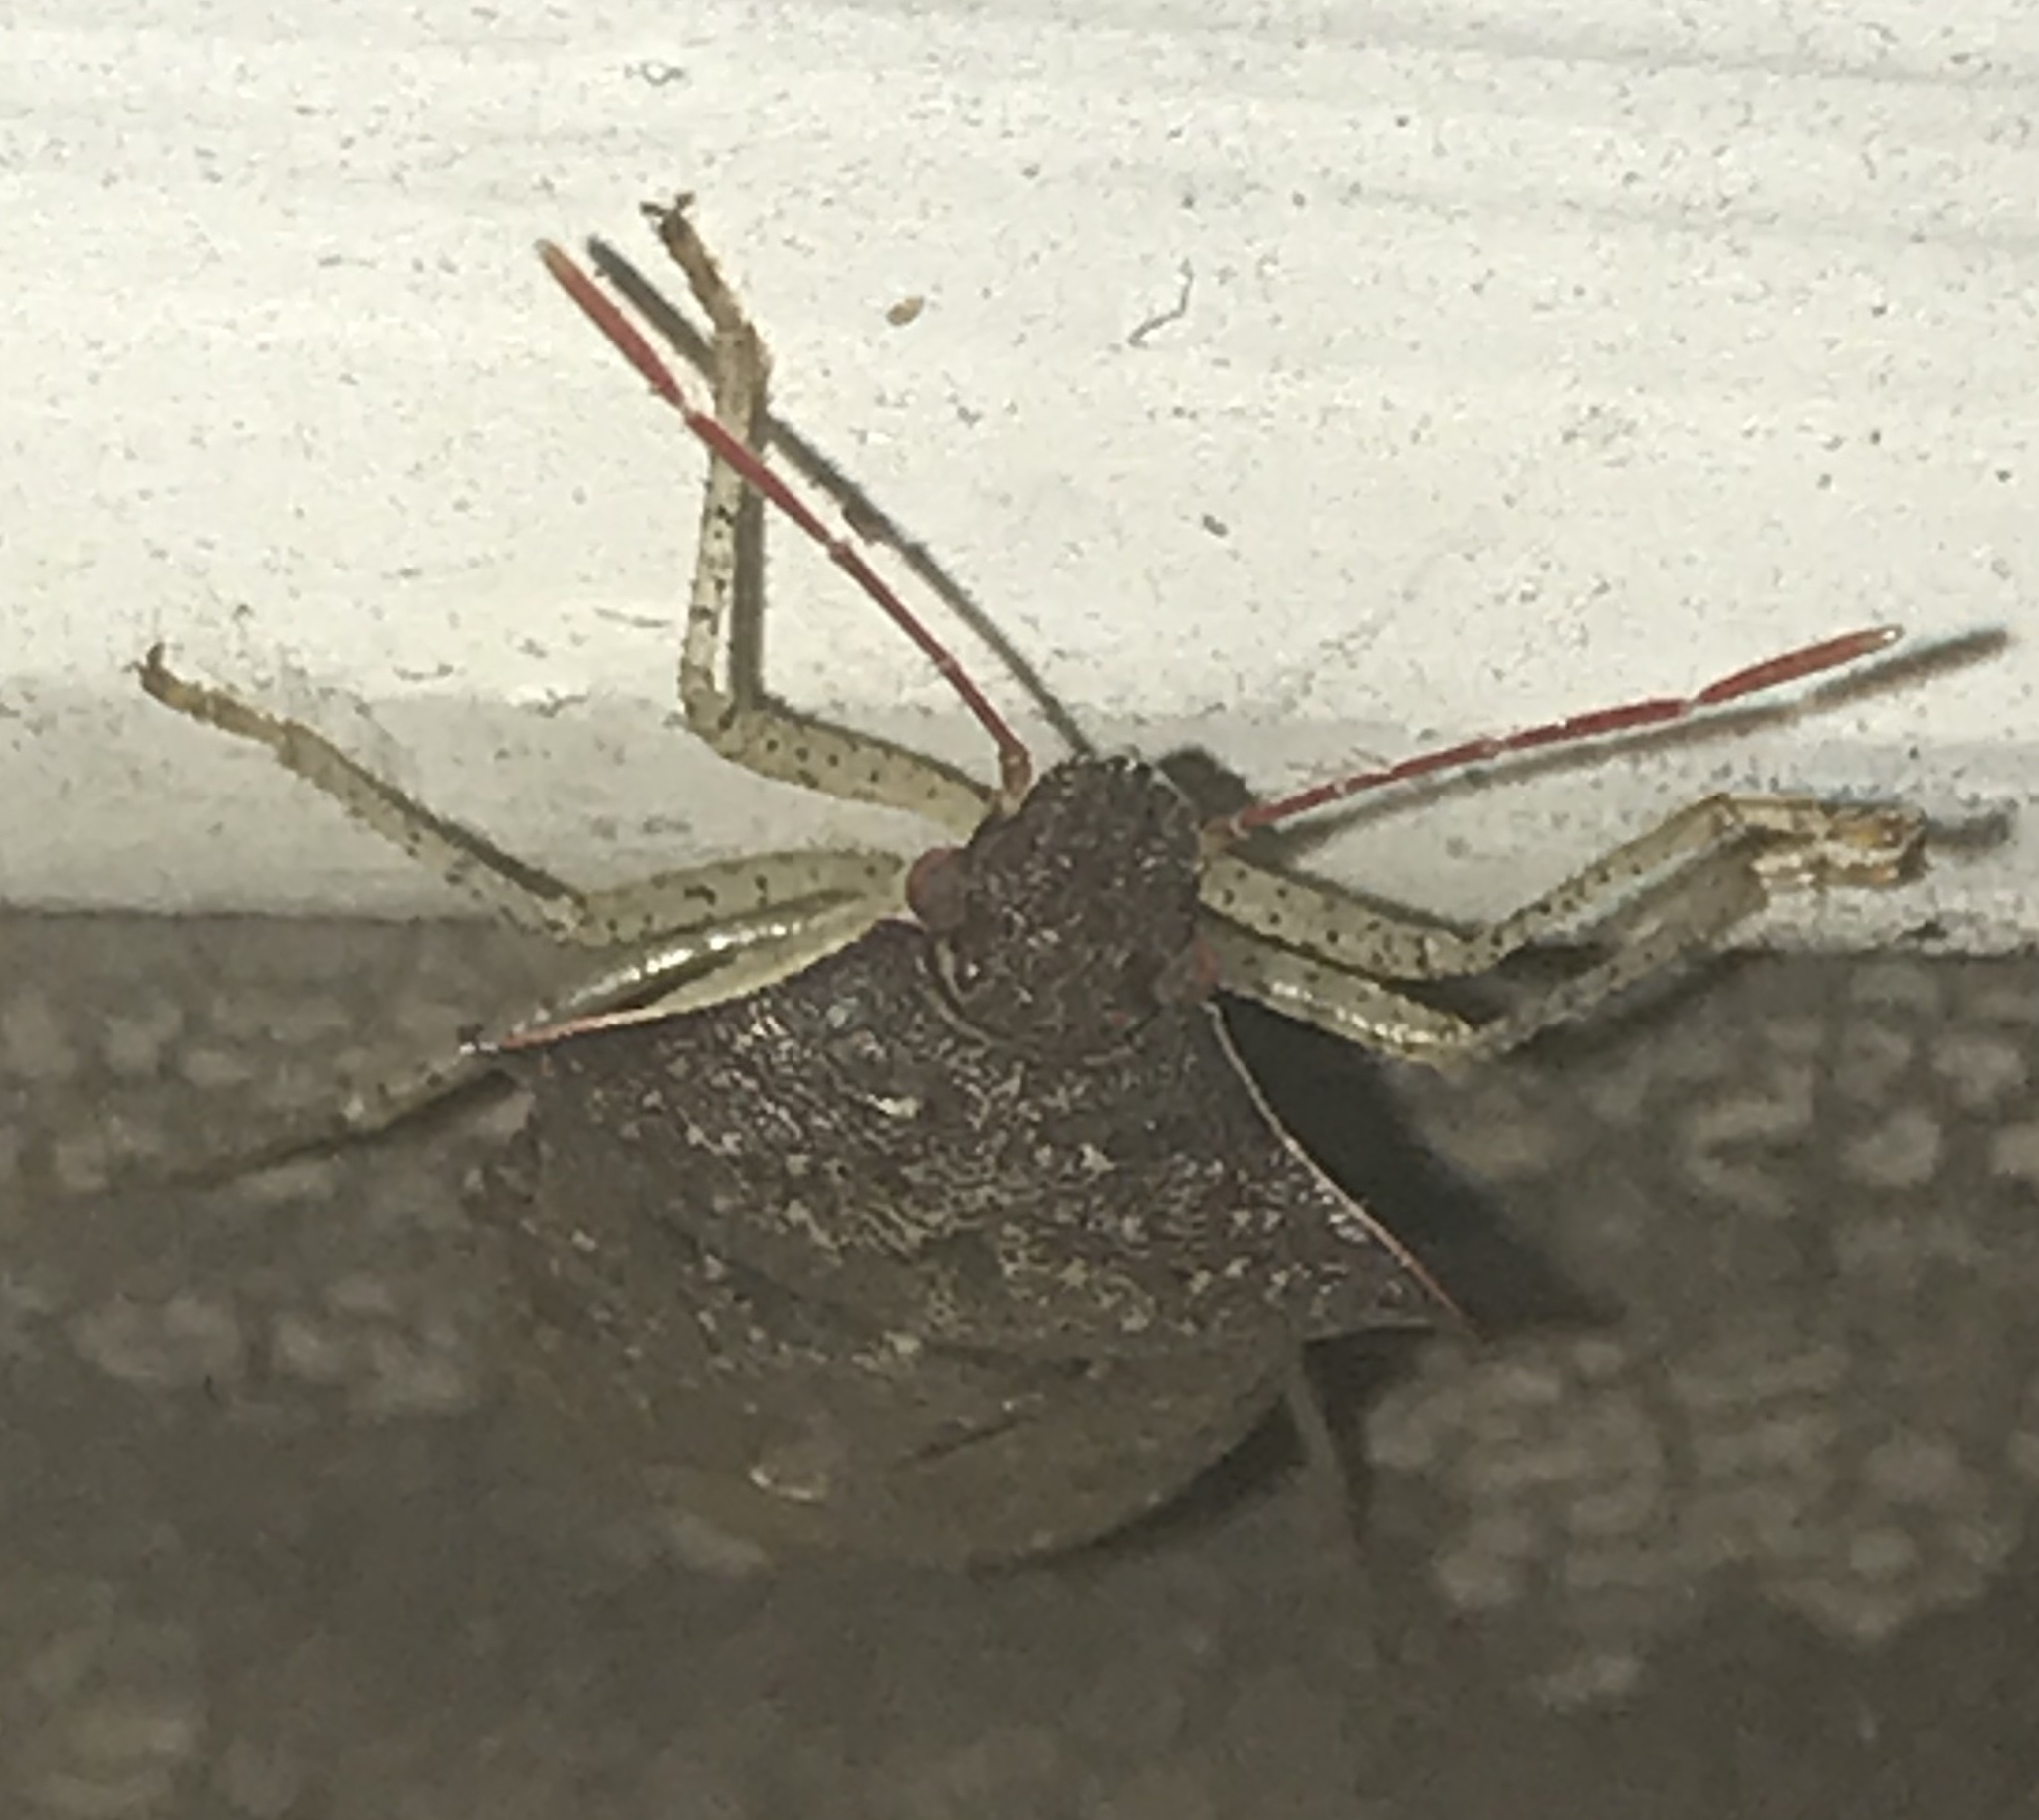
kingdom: Animalia
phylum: Arthropoda
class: Insecta
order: Hemiptera
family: Pentatomidae
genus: Euschistus
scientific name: Euschistus tristigmus
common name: Dusky stink bug
